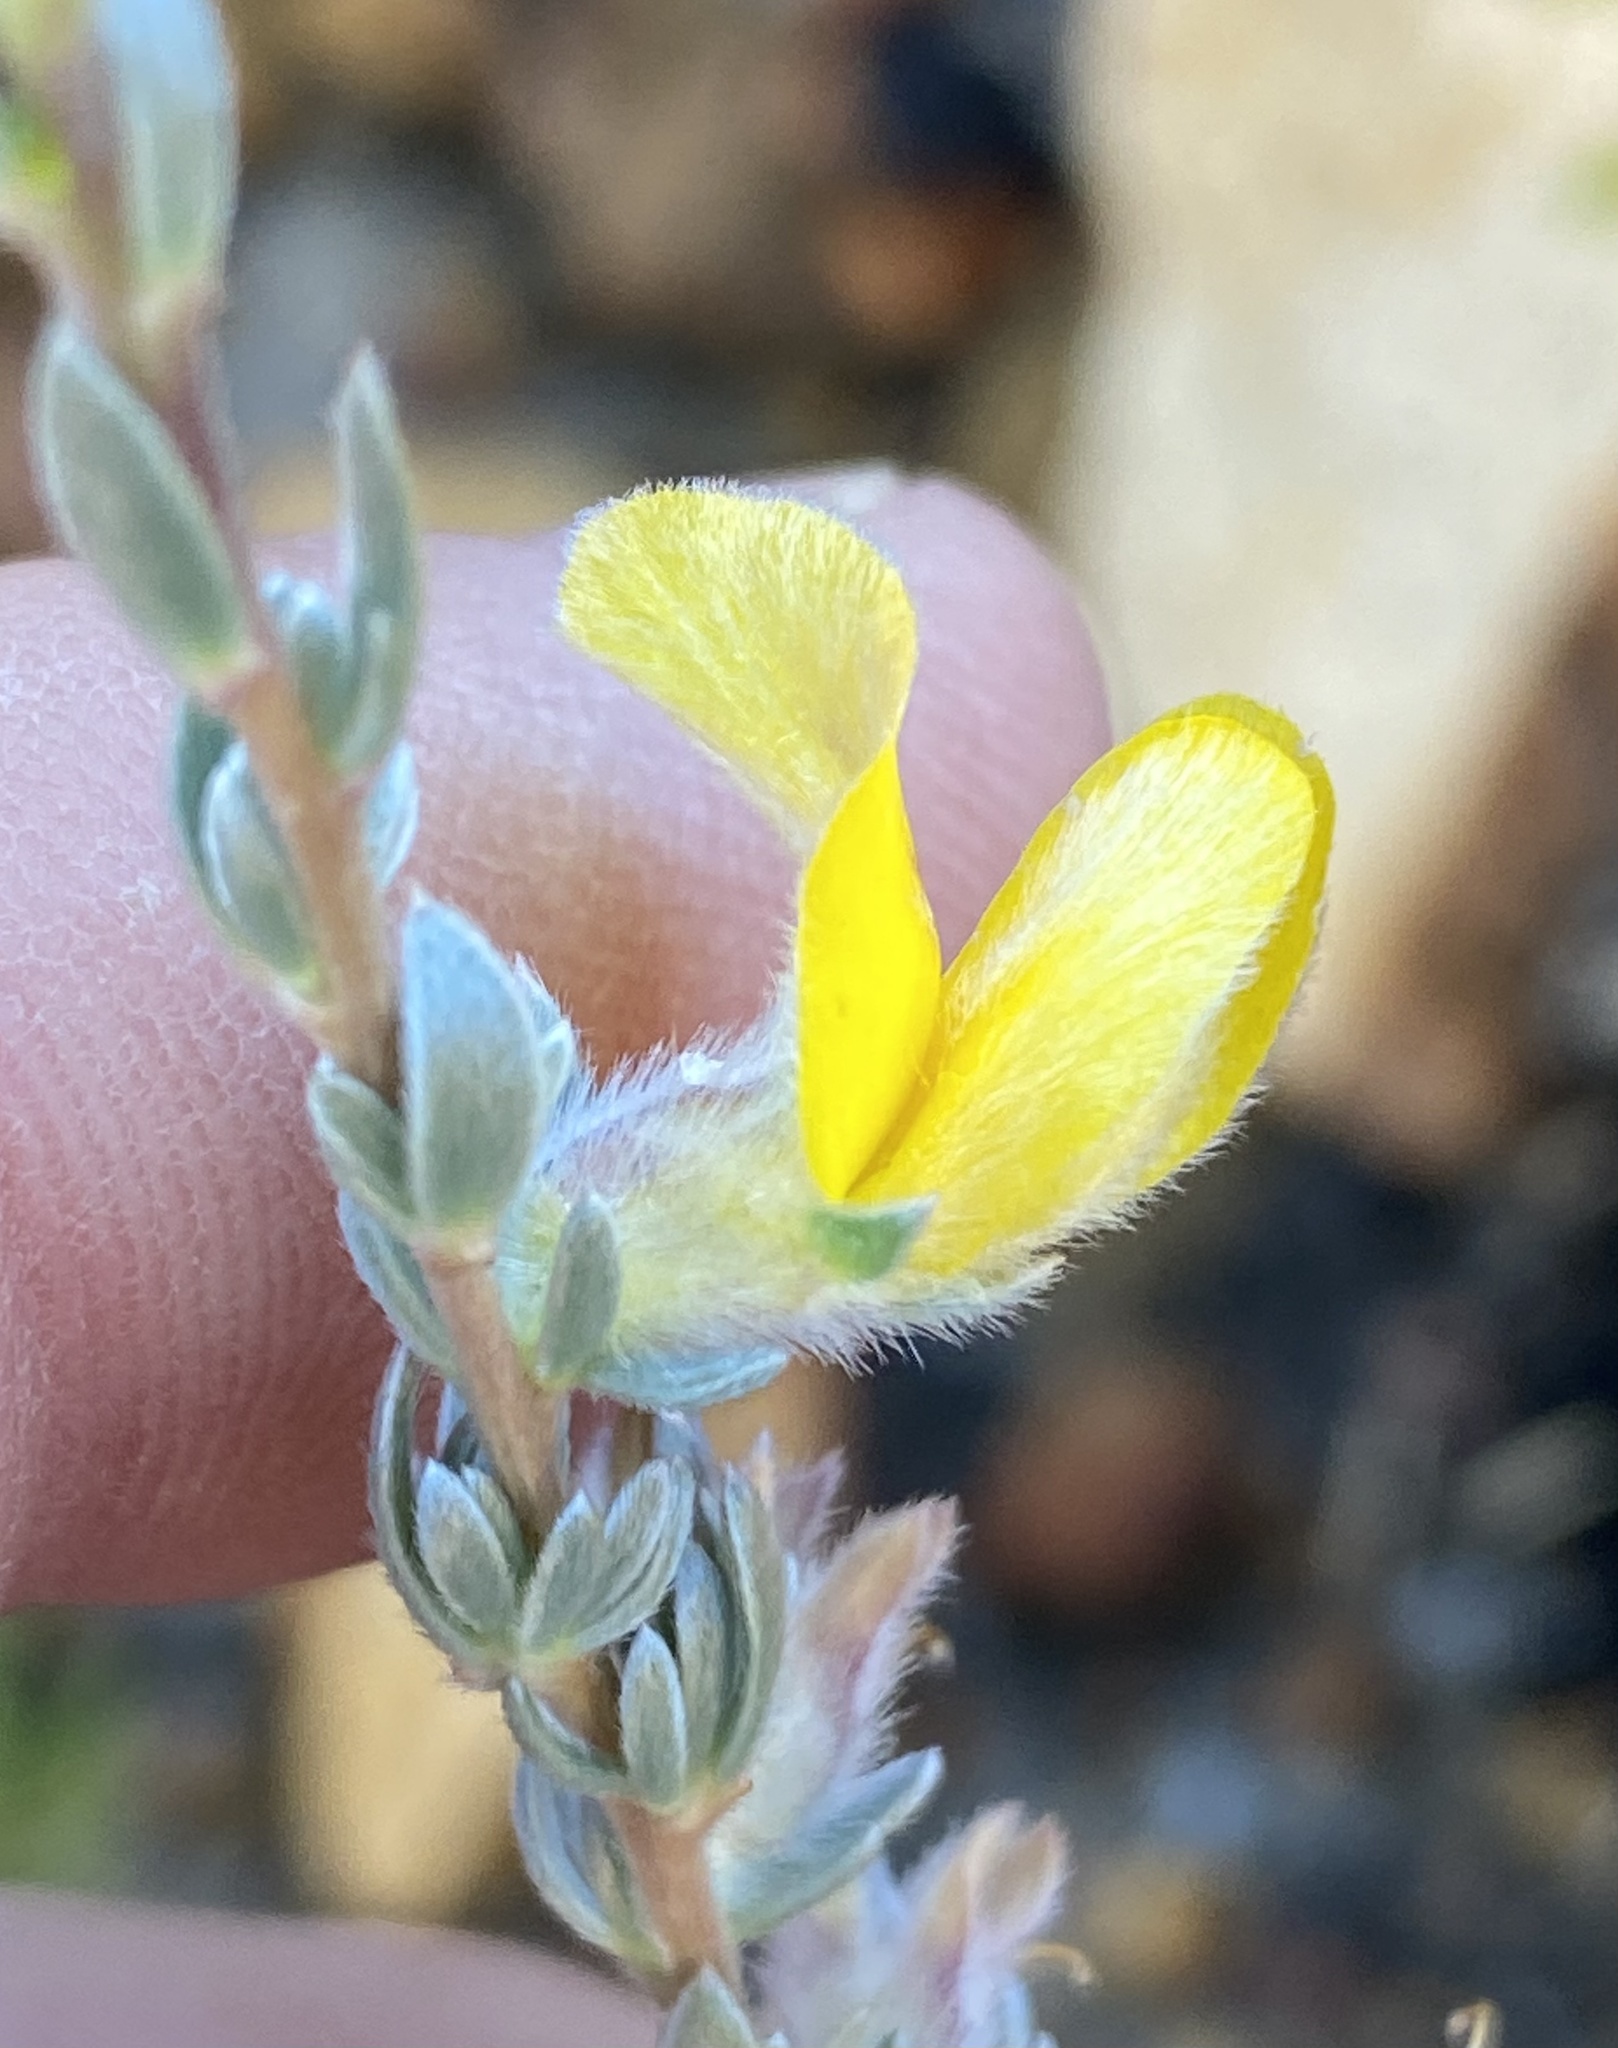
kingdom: Plantae
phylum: Tracheophyta
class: Magnoliopsida
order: Fabales
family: Fabaceae
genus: Aspalathus
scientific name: Aspalathus caledonensis
